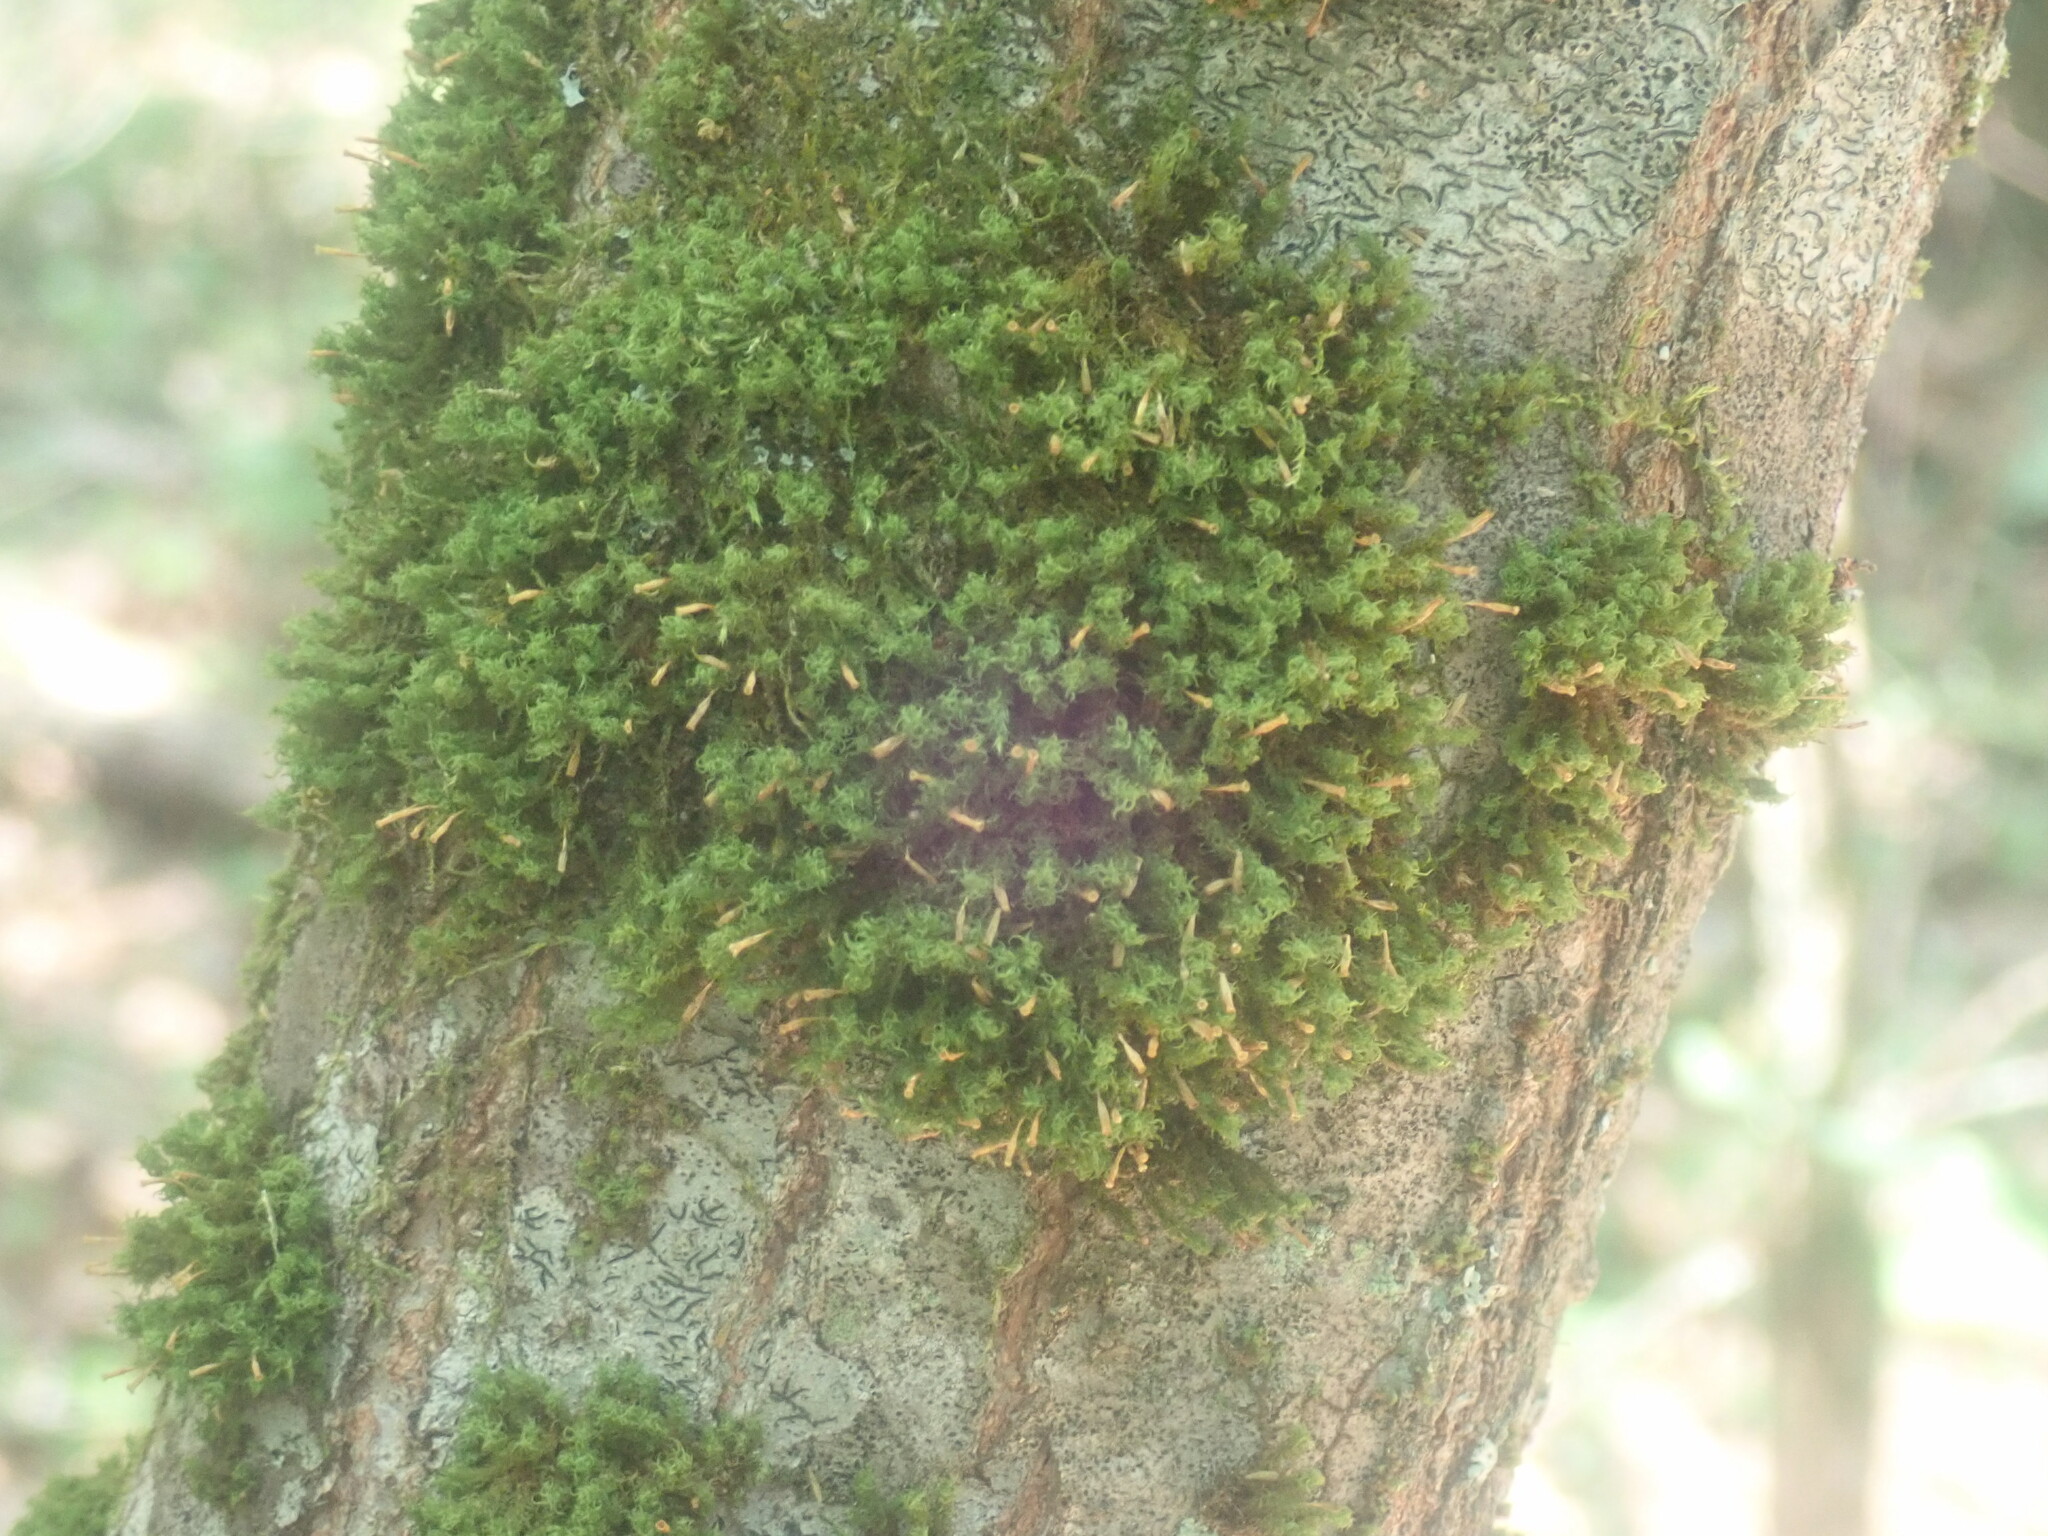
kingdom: Plantae
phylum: Bryophyta
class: Bryopsida
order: Orthotrichales
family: Orthotrichaceae
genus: Ulota
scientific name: Ulota crispa
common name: Crisped pincushion moss
